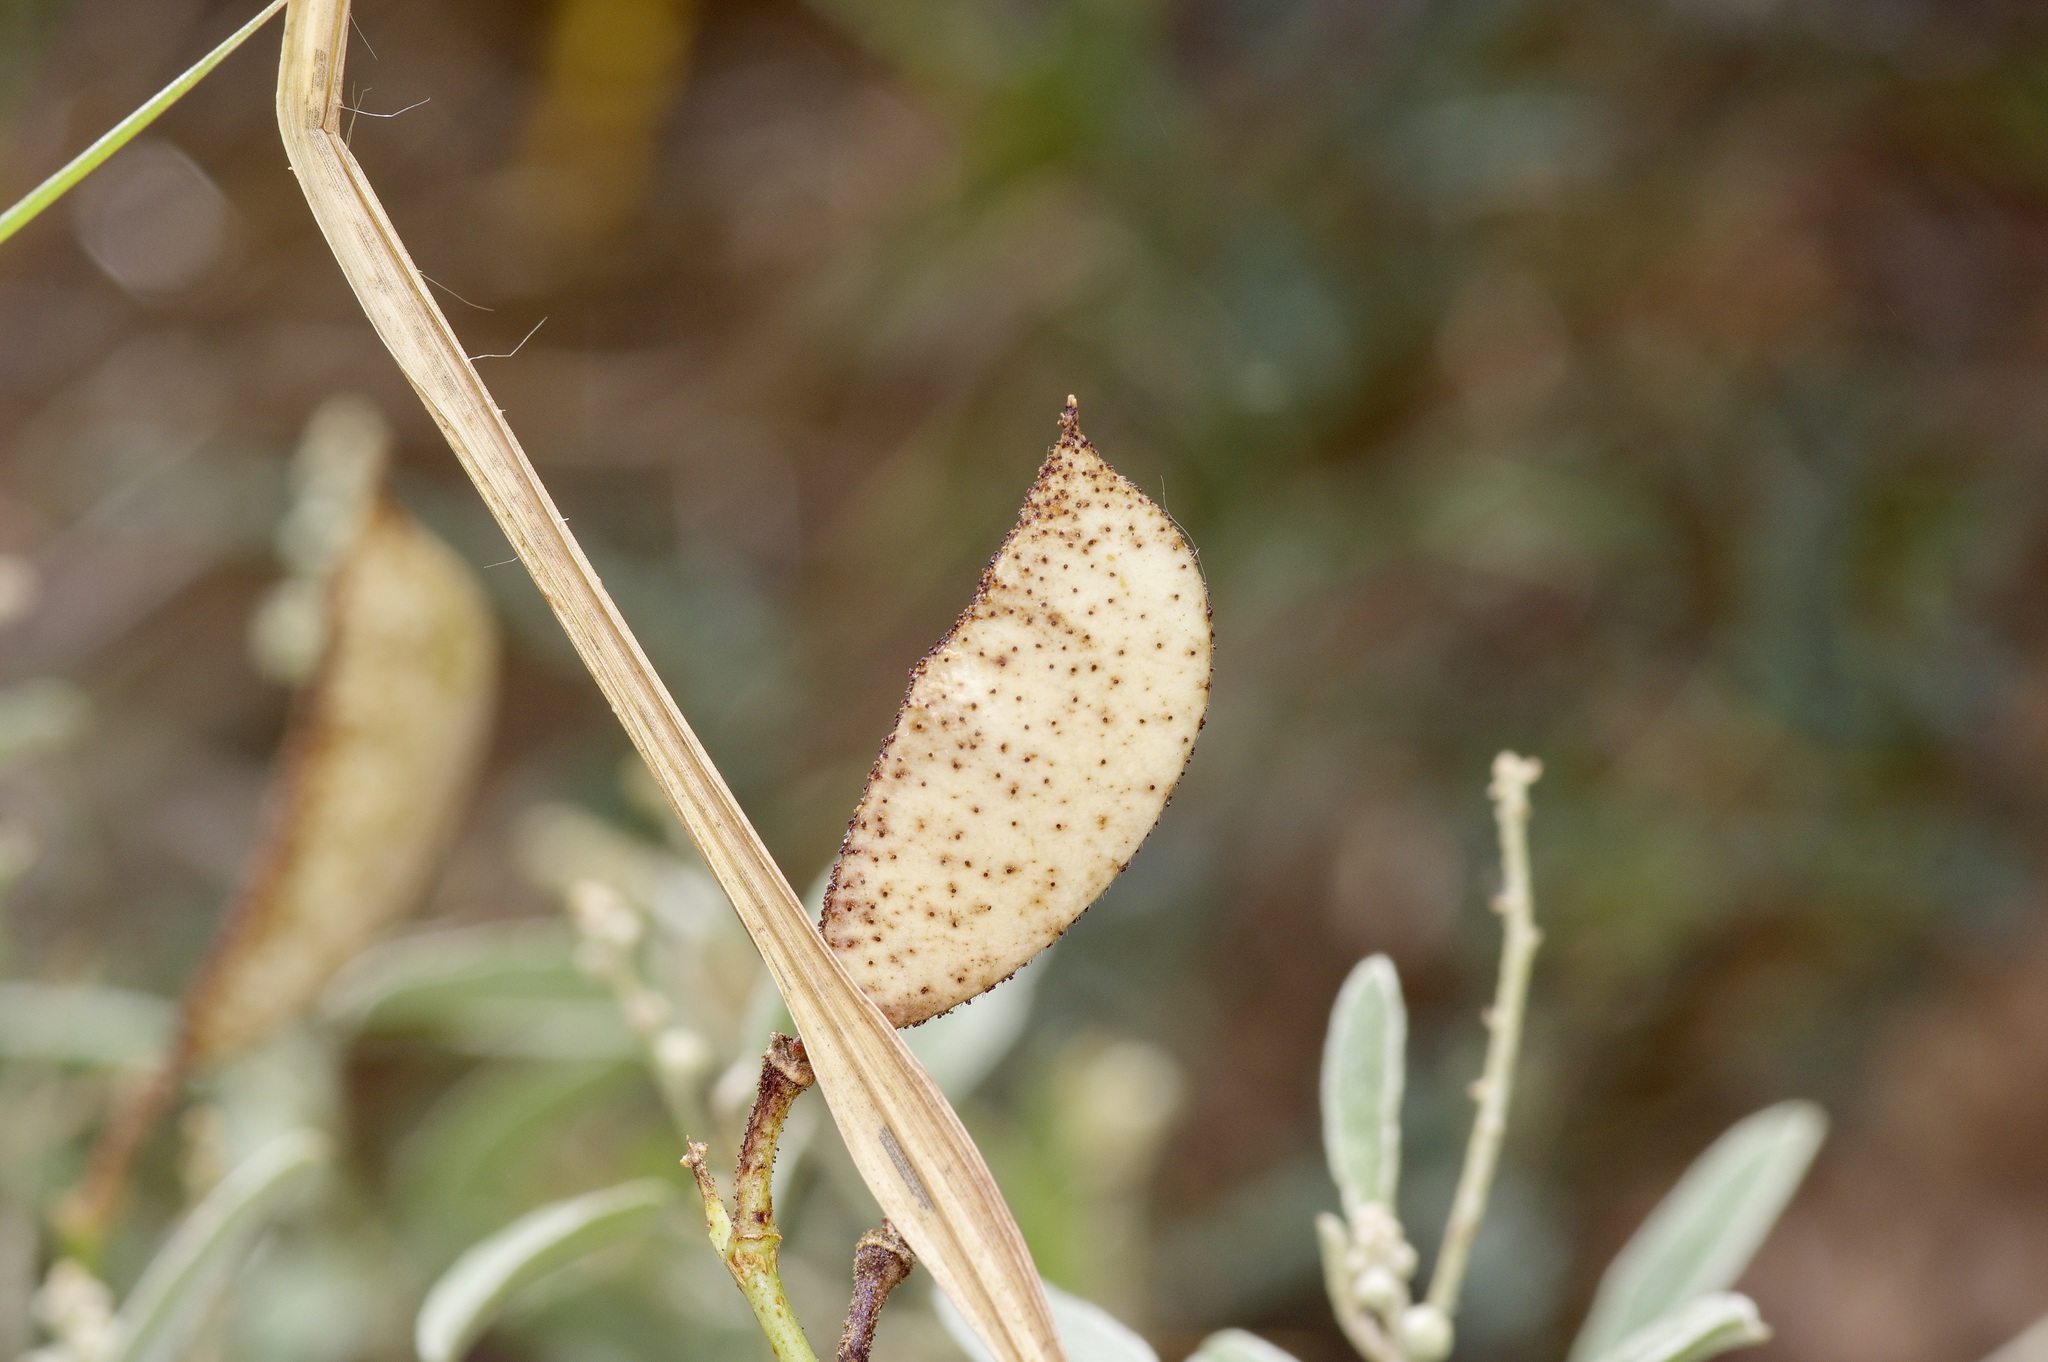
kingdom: Plantae
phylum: Tracheophyta
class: Magnoliopsida
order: Fabales
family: Fabaceae
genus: Erythrostemon
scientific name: Erythrostemon caudatus
